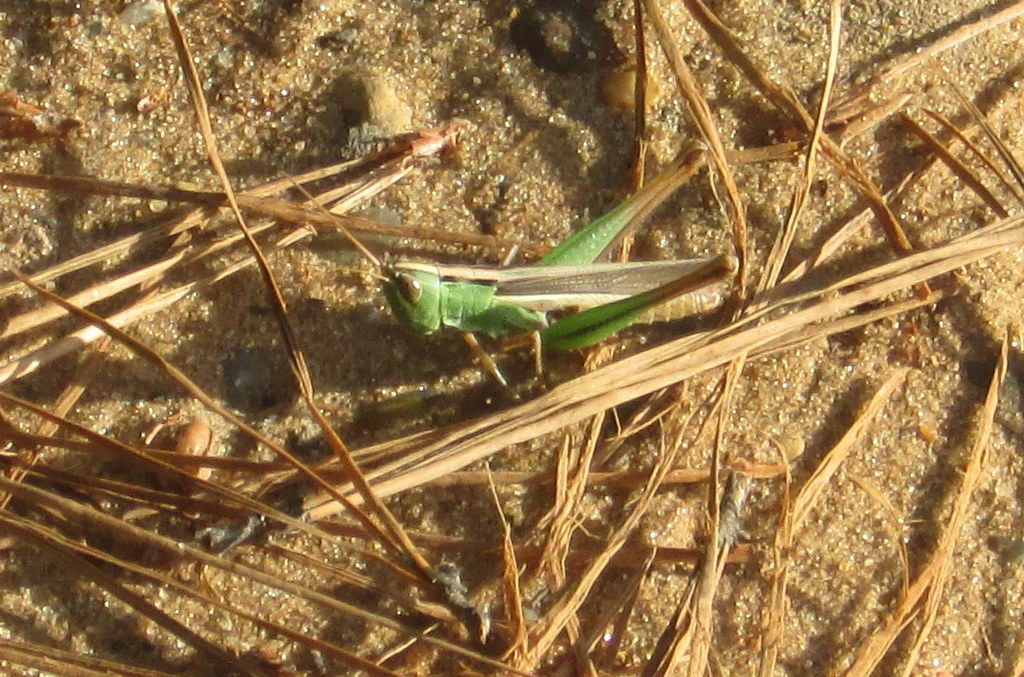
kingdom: Animalia
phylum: Arthropoda
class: Insecta
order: Orthoptera
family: Acrididae
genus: Staurorhectus
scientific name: Staurorhectus longicornis
